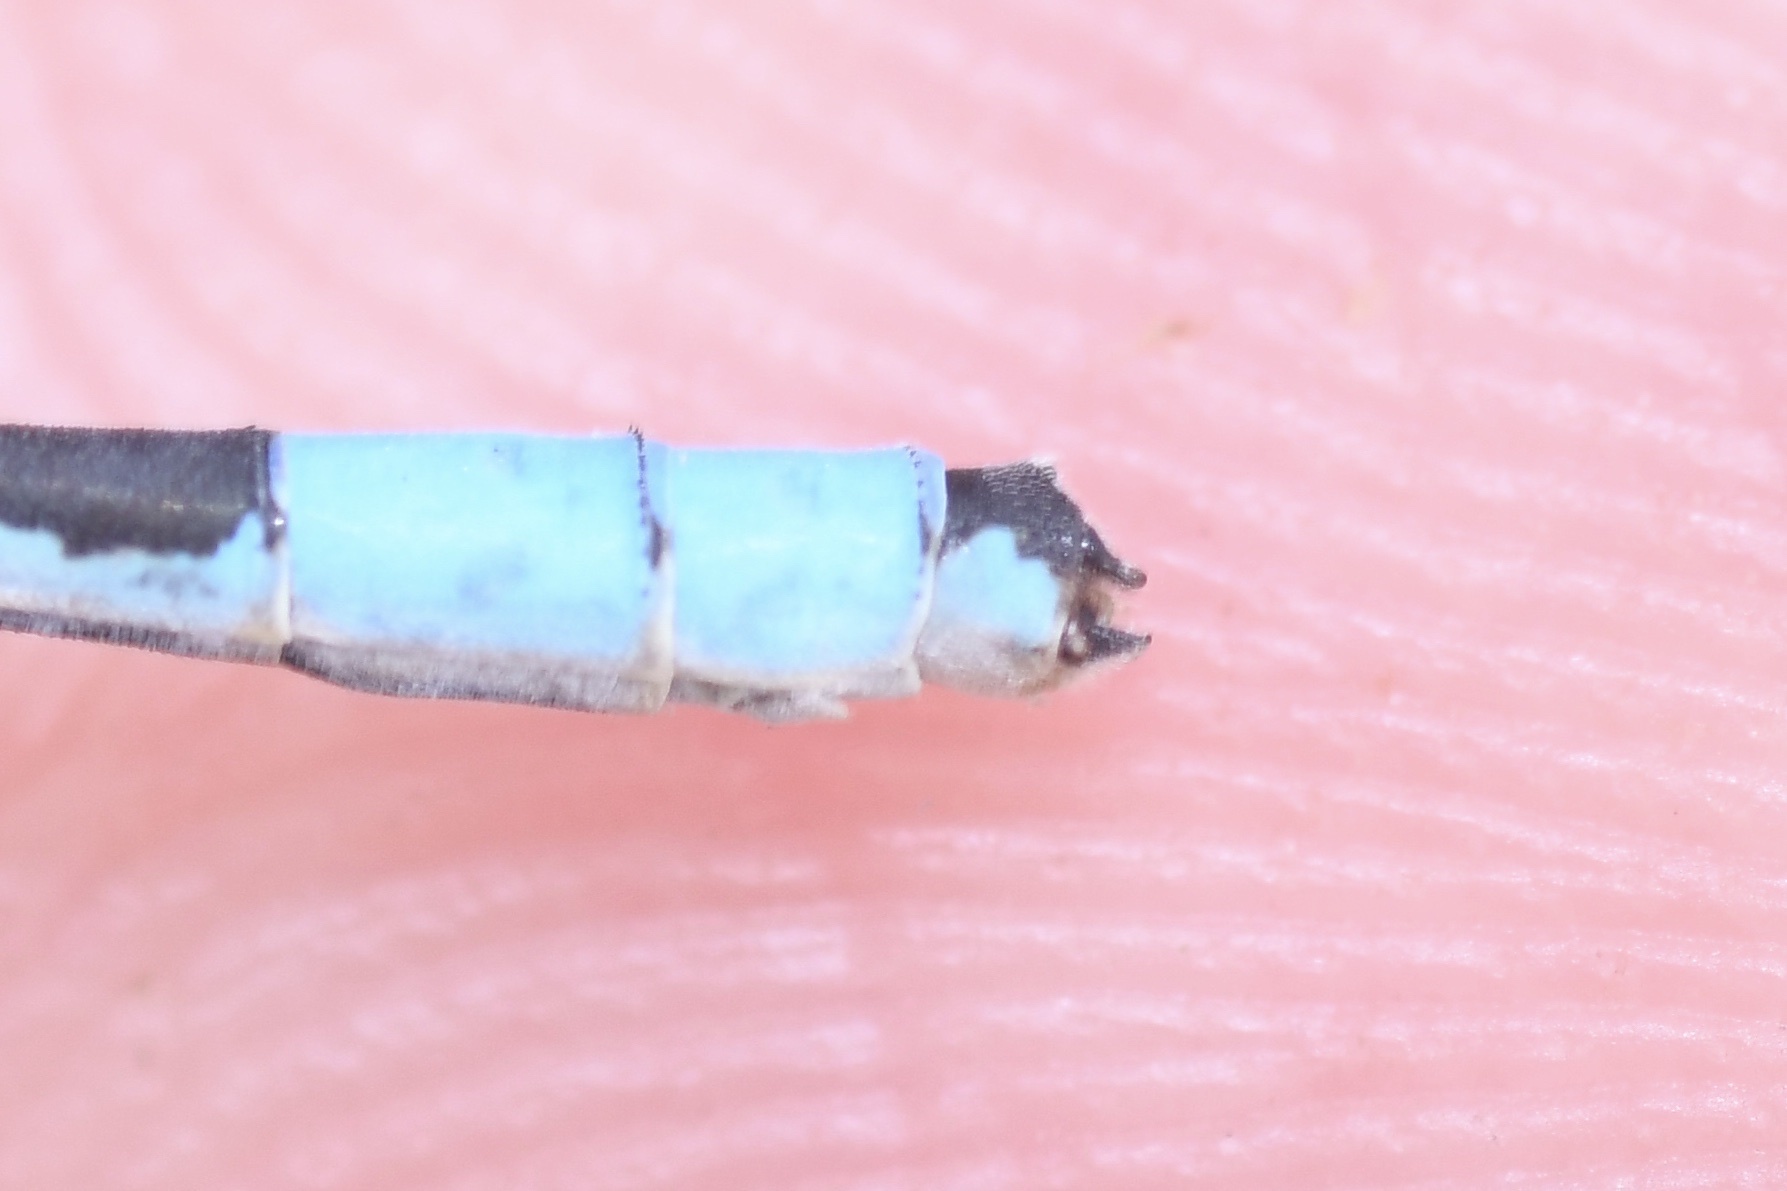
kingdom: Animalia
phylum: Arthropoda
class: Insecta
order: Odonata
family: Coenagrionidae
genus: Enallagma
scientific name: Enallagma hageni
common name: Hagen's bluet
